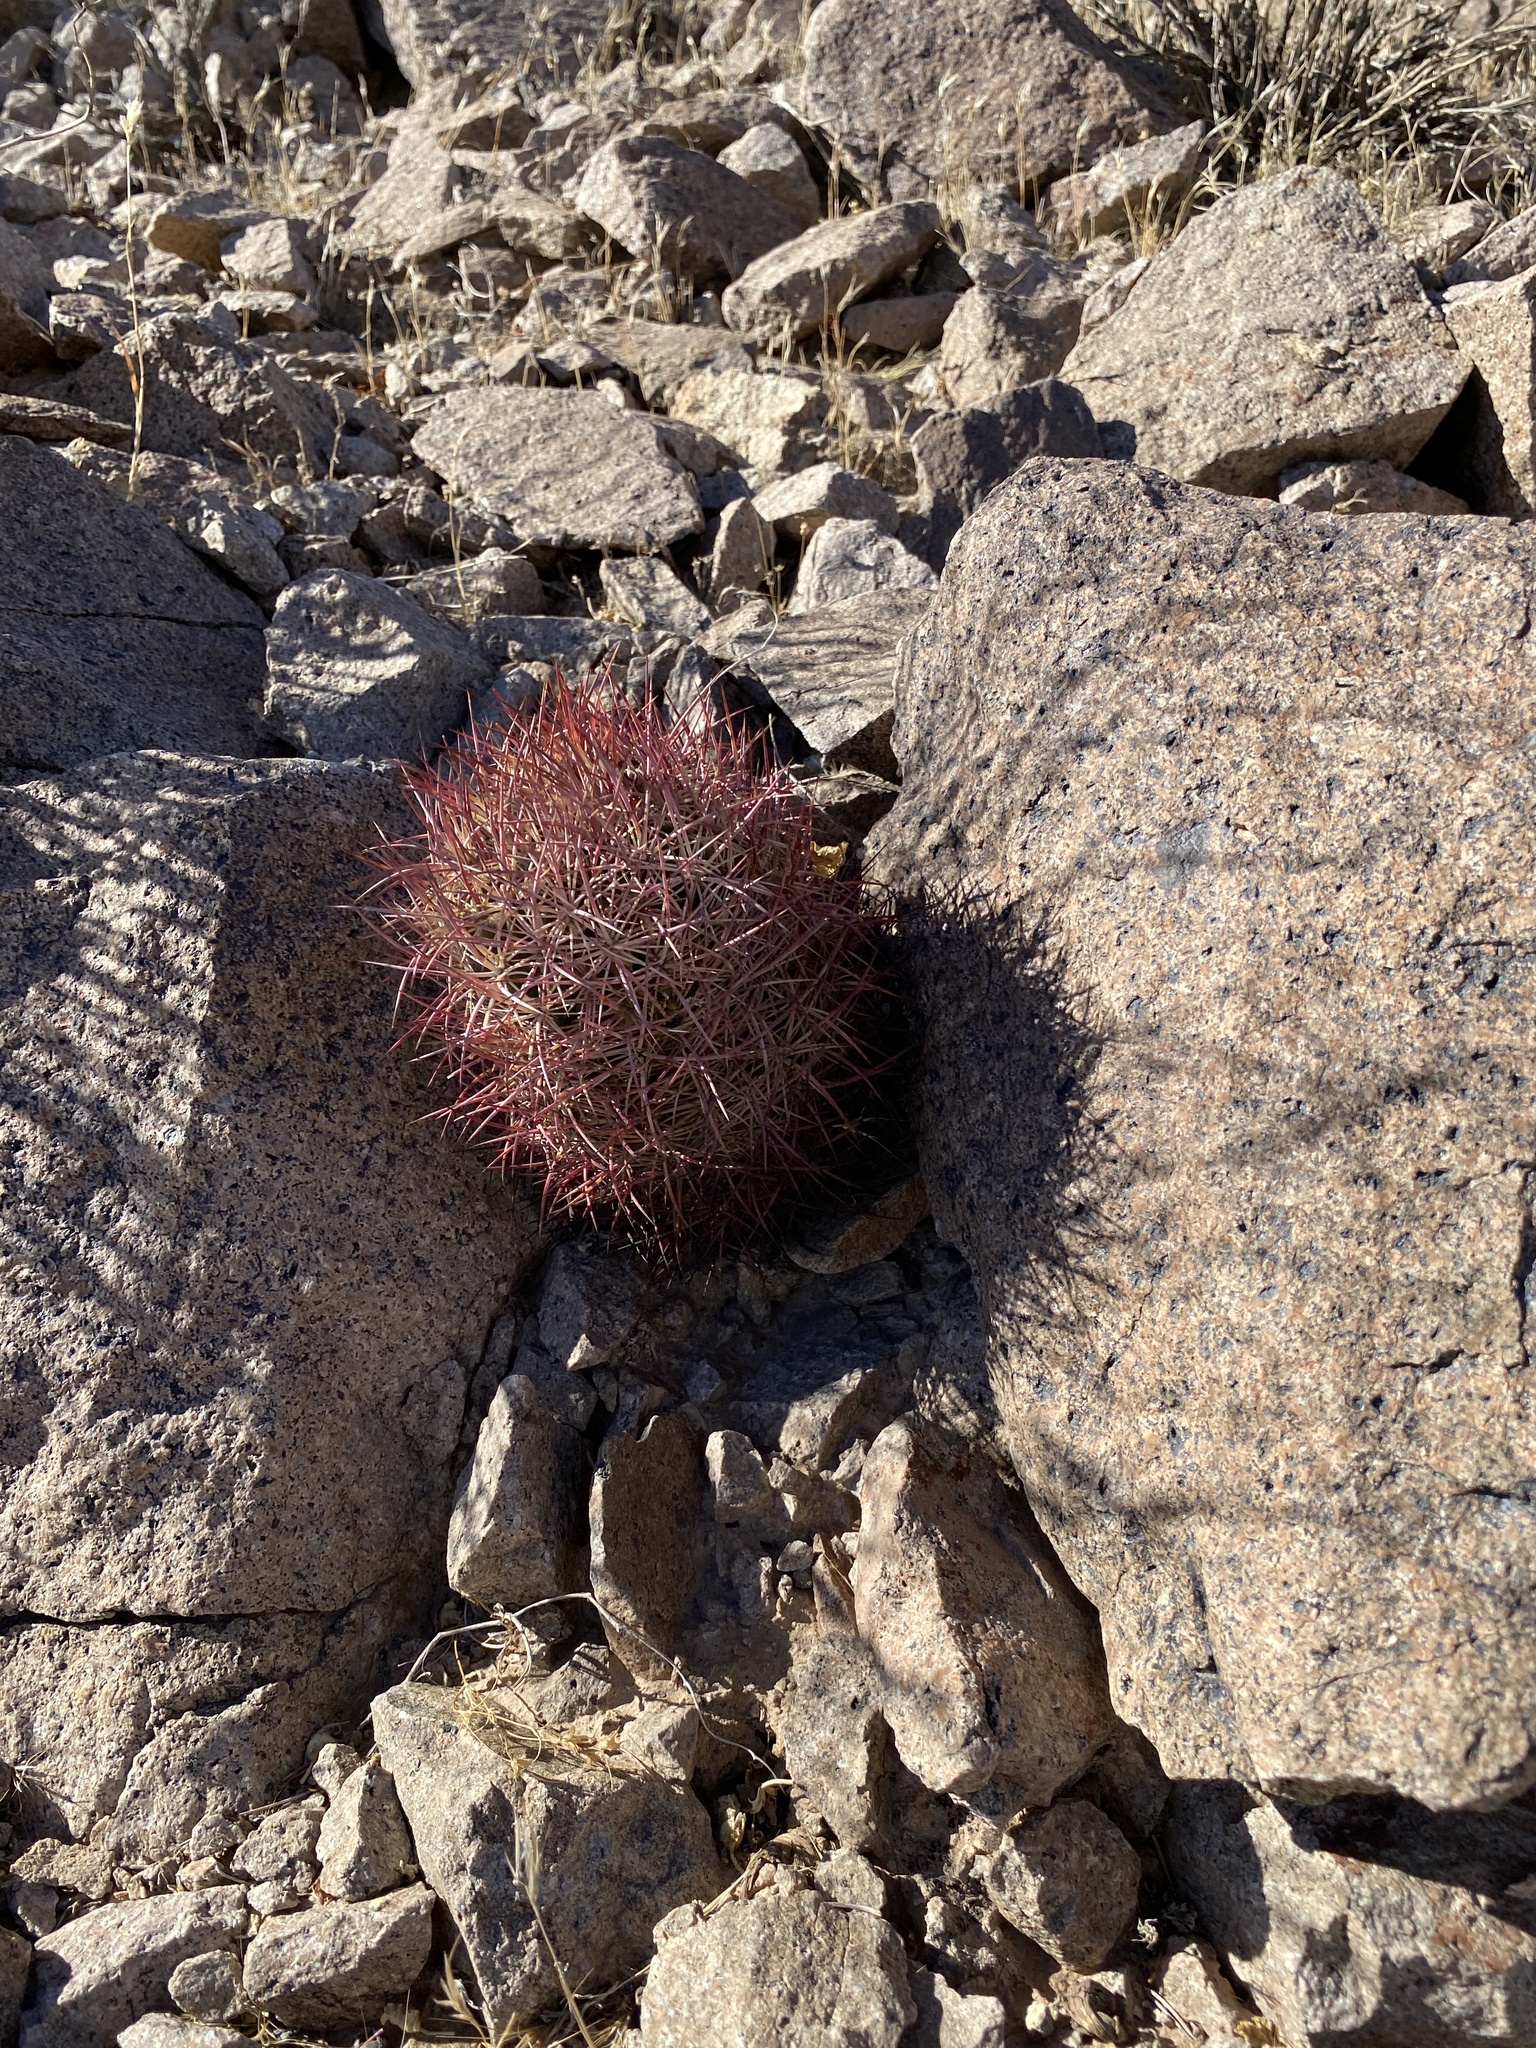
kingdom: Plantae
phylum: Tracheophyta
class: Magnoliopsida
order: Caryophyllales
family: Cactaceae
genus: Sclerocactus
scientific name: Sclerocactus johnsonii
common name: Eight-spine fishhook cactus
